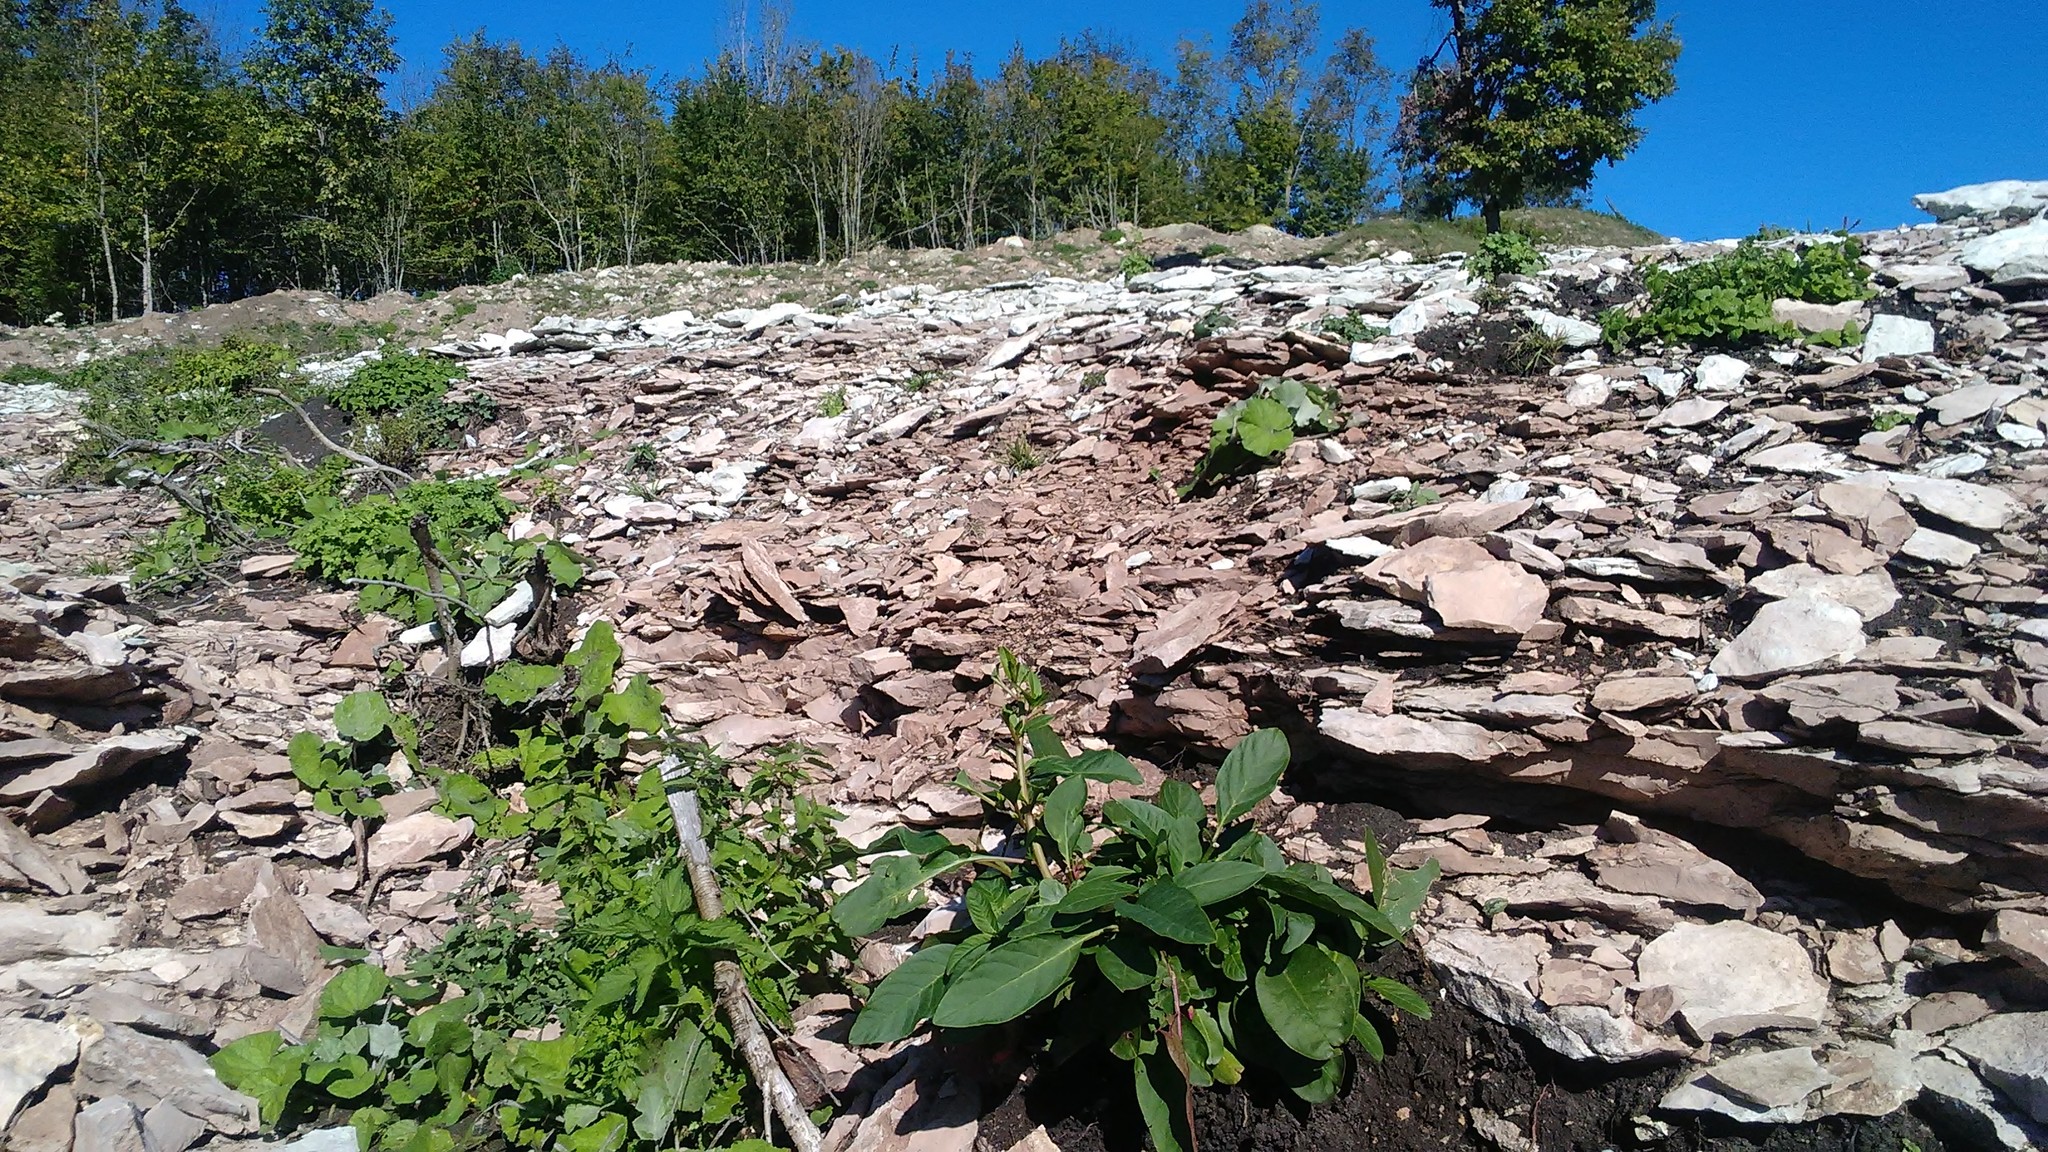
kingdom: Plantae
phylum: Tracheophyta
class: Magnoliopsida
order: Caryophyllales
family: Phytolaccaceae
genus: Phytolacca
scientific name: Phytolacca americana
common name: American pokeweed
